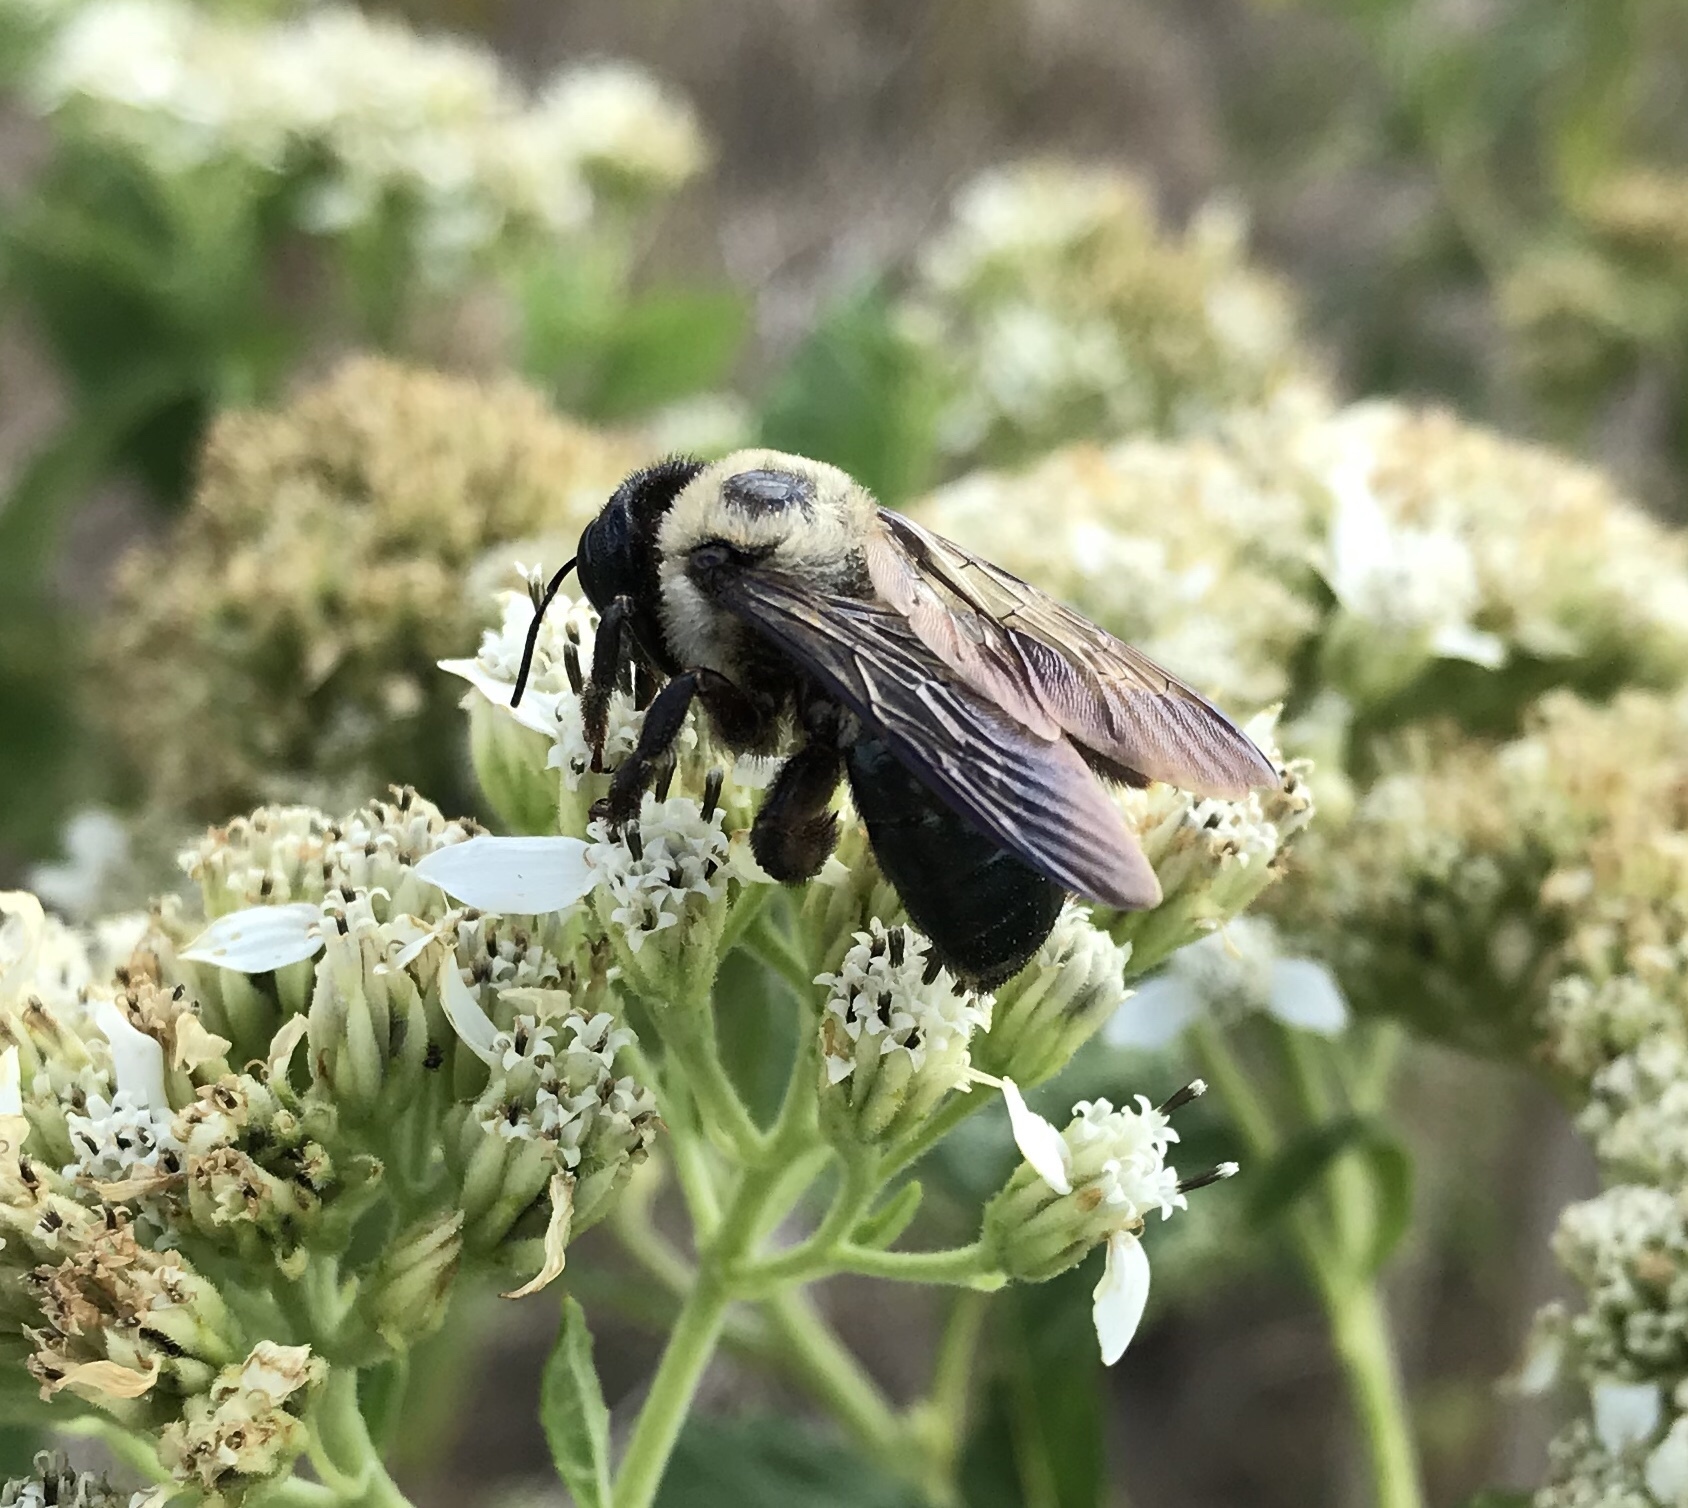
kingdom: Animalia
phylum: Arthropoda
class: Insecta
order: Hymenoptera
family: Apidae
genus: Xylocopa
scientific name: Xylocopa virginica
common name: Carpenter bee
